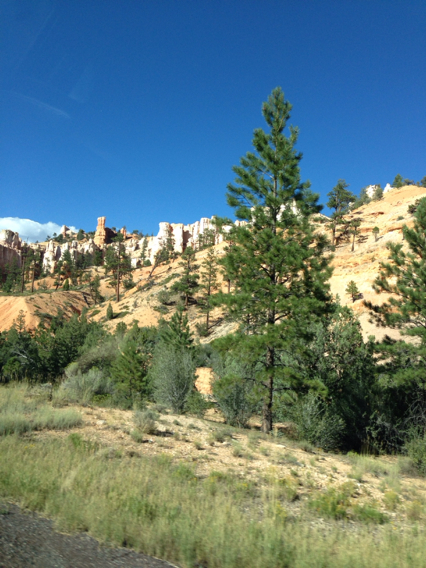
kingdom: Plantae
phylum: Tracheophyta
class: Pinopsida
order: Pinales
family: Pinaceae
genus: Pinus
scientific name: Pinus ponderosa
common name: Western yellow-pine
